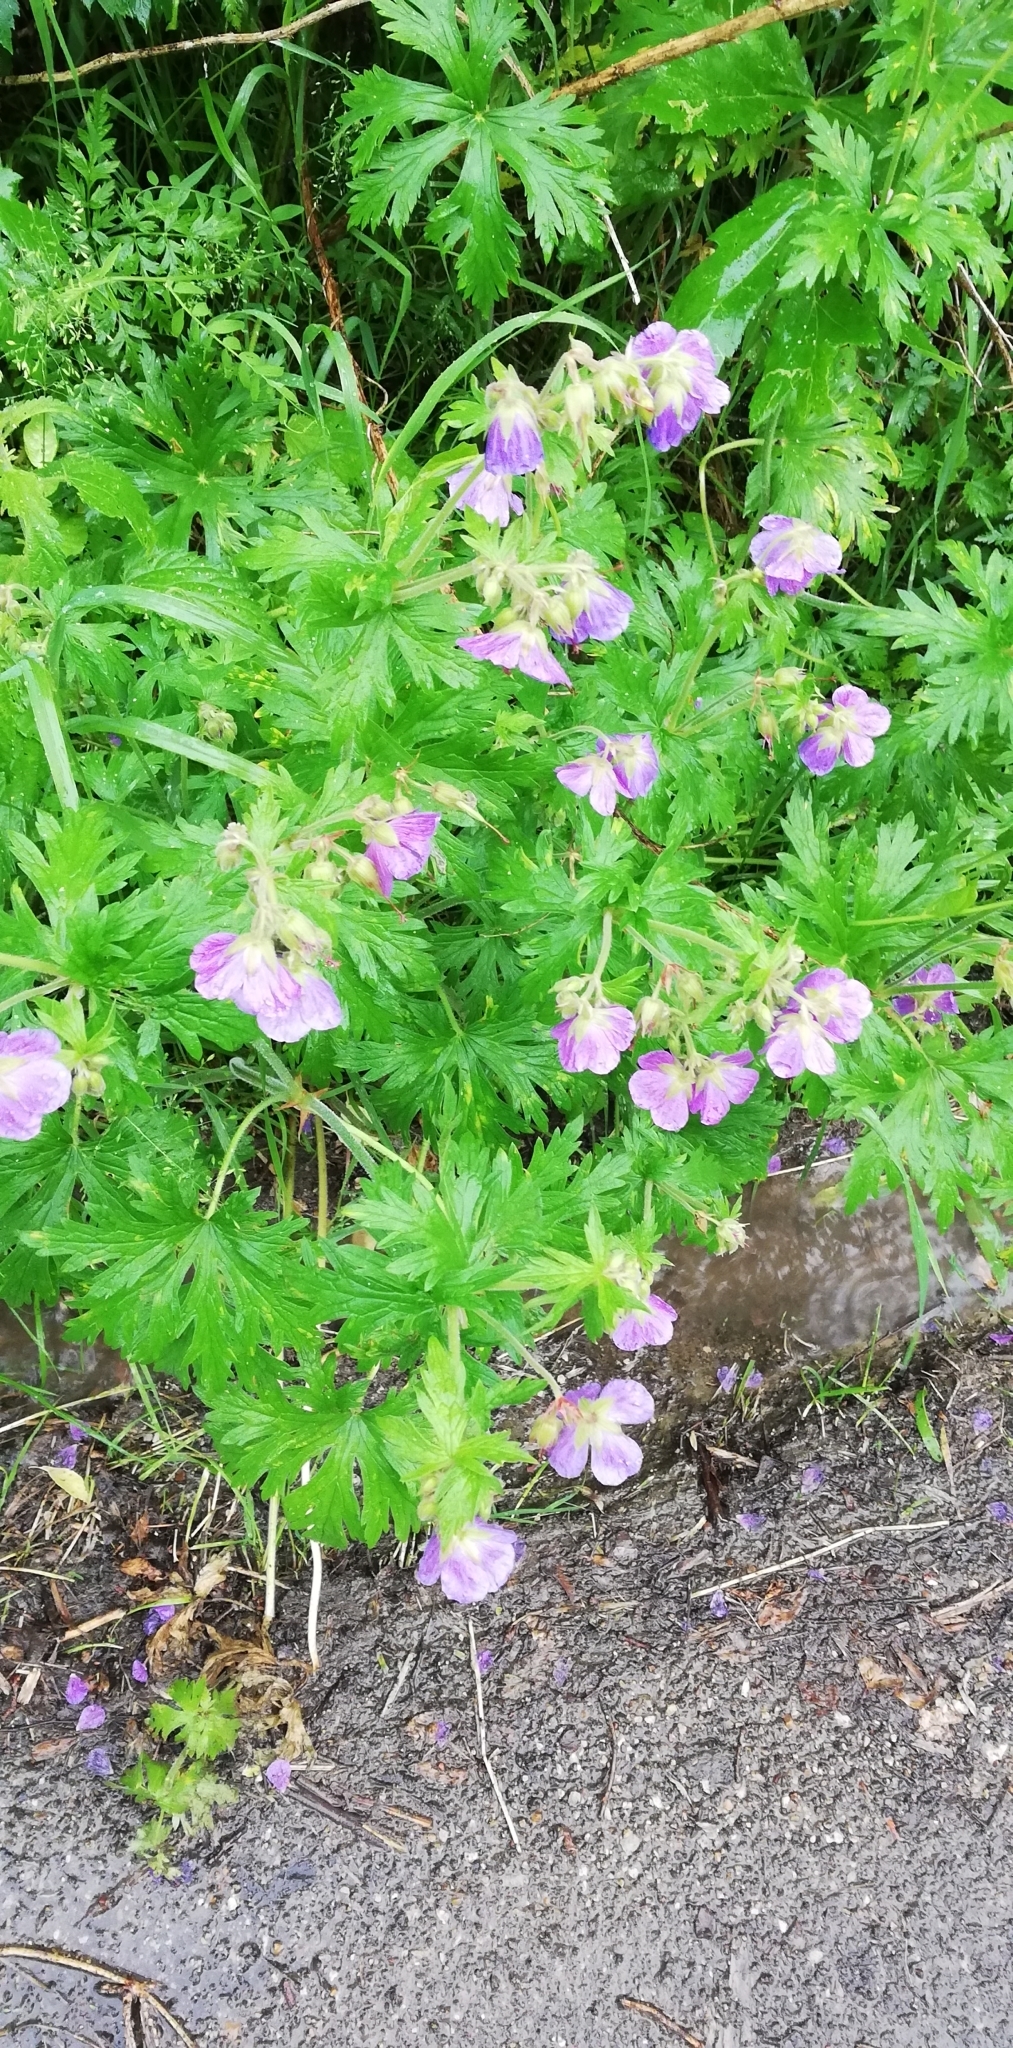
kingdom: Plantae
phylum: Tracheophyta
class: Magnoliopsida
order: Geraniales
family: Geraniaceae
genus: Geranium
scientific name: Geranium pratense
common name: Meadow crane's-bill
